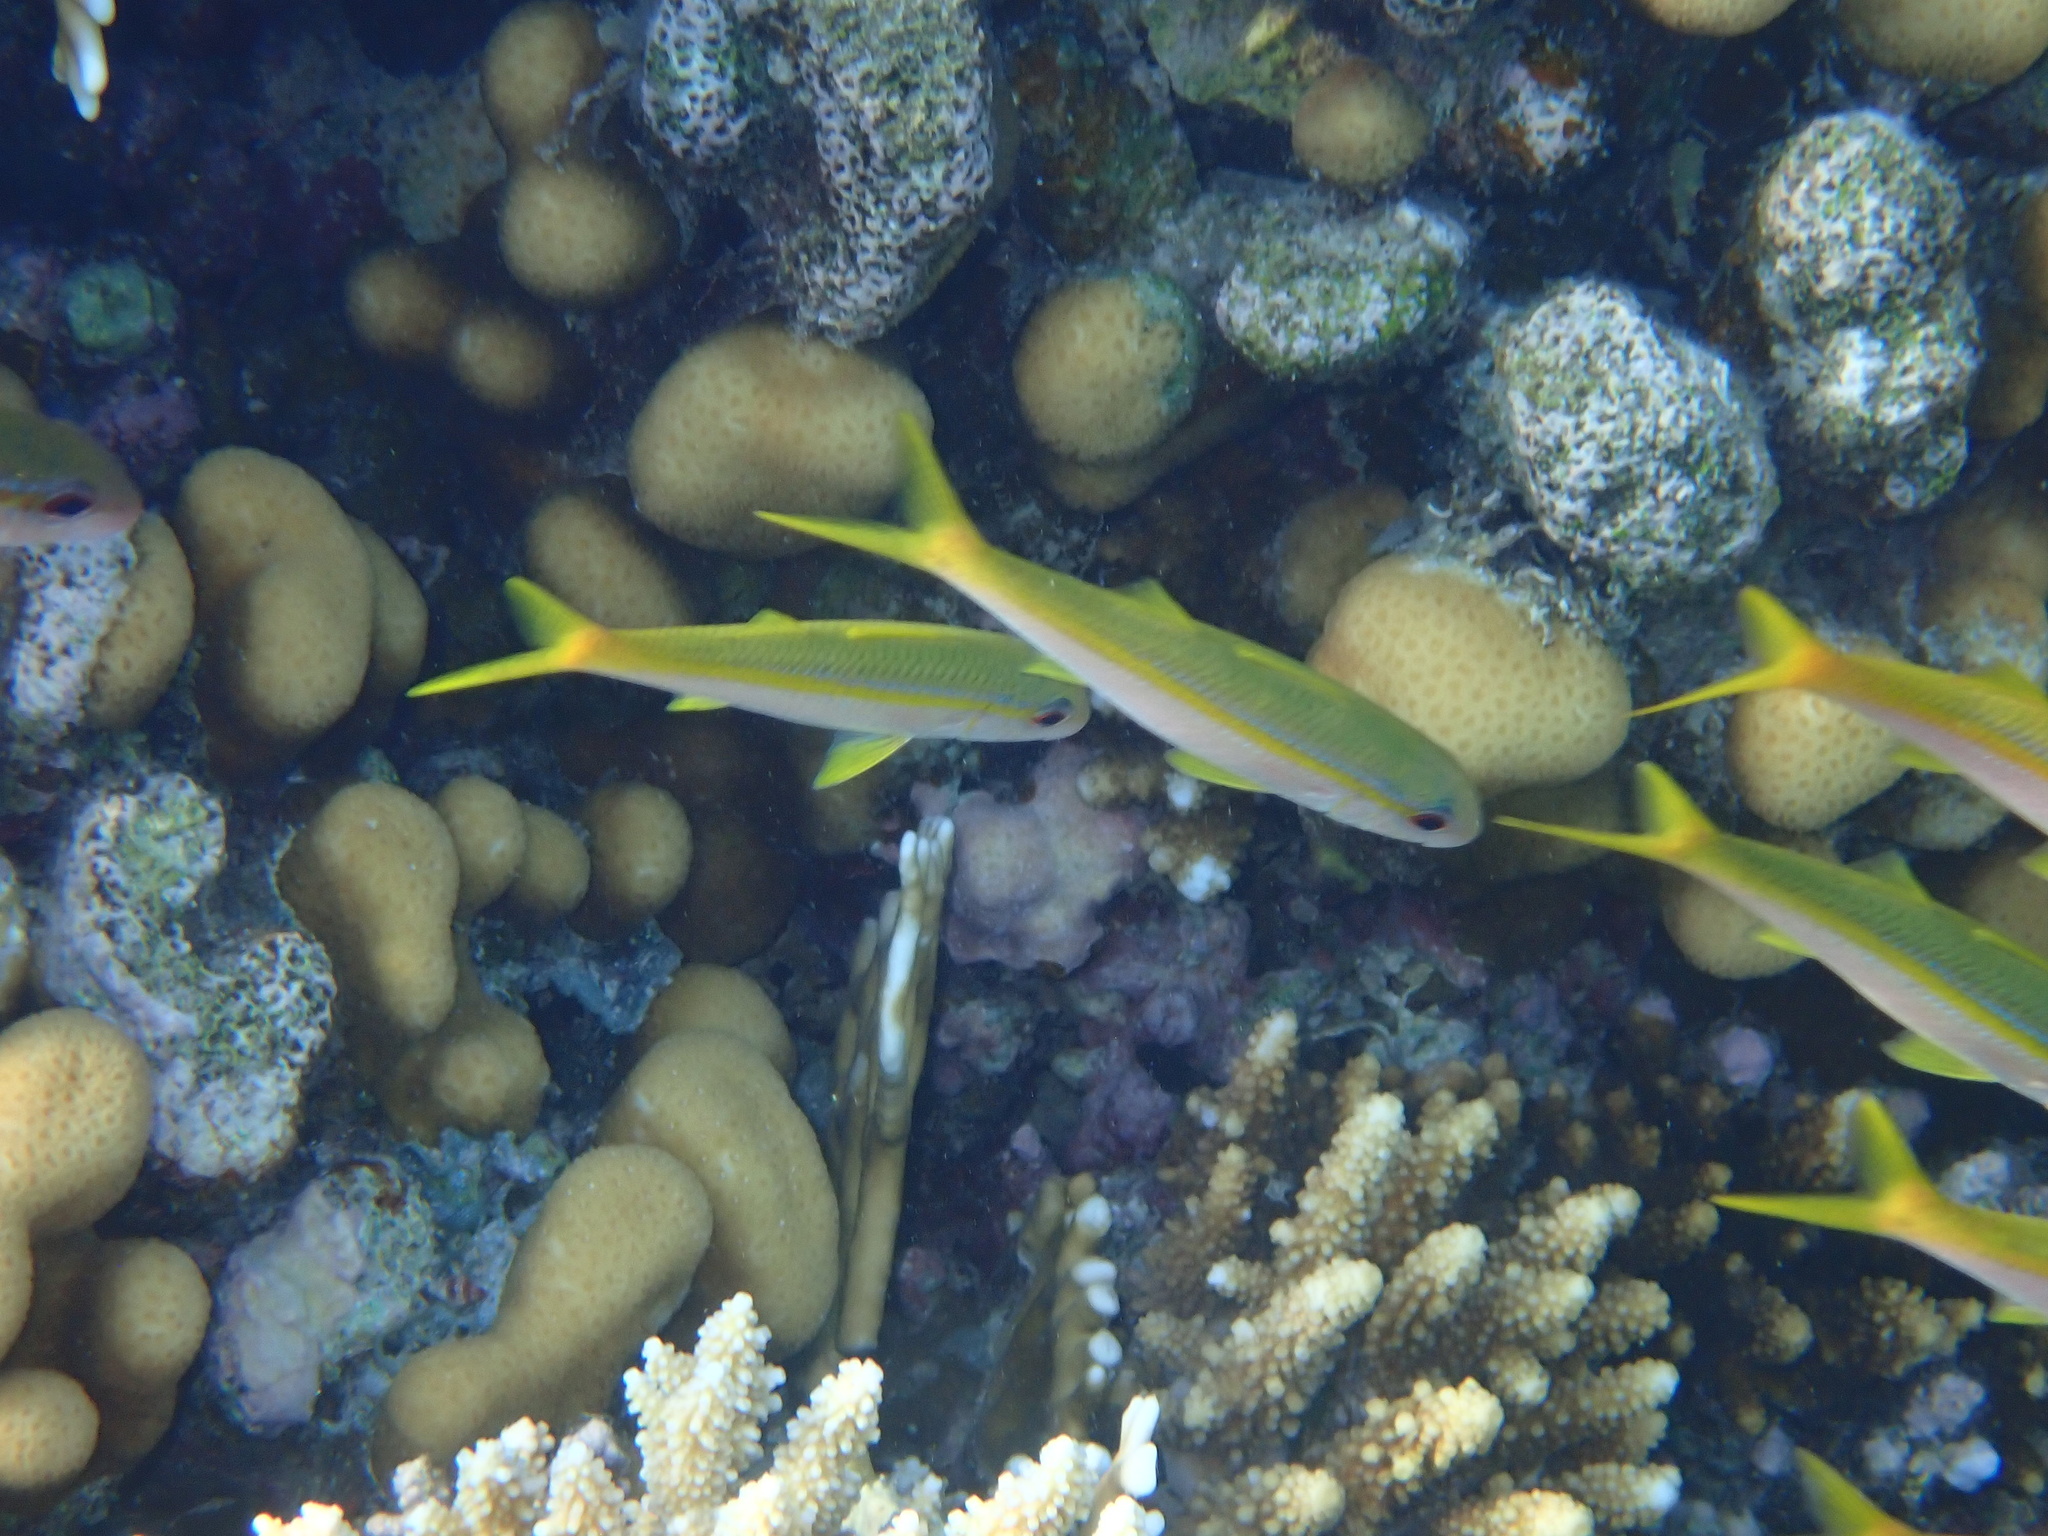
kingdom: Animalia
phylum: Chordata
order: Perciformes
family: Mullidae
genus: Mulloidichthys
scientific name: Mulloidichthys vanicolensis
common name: Yellowfin goatfish
